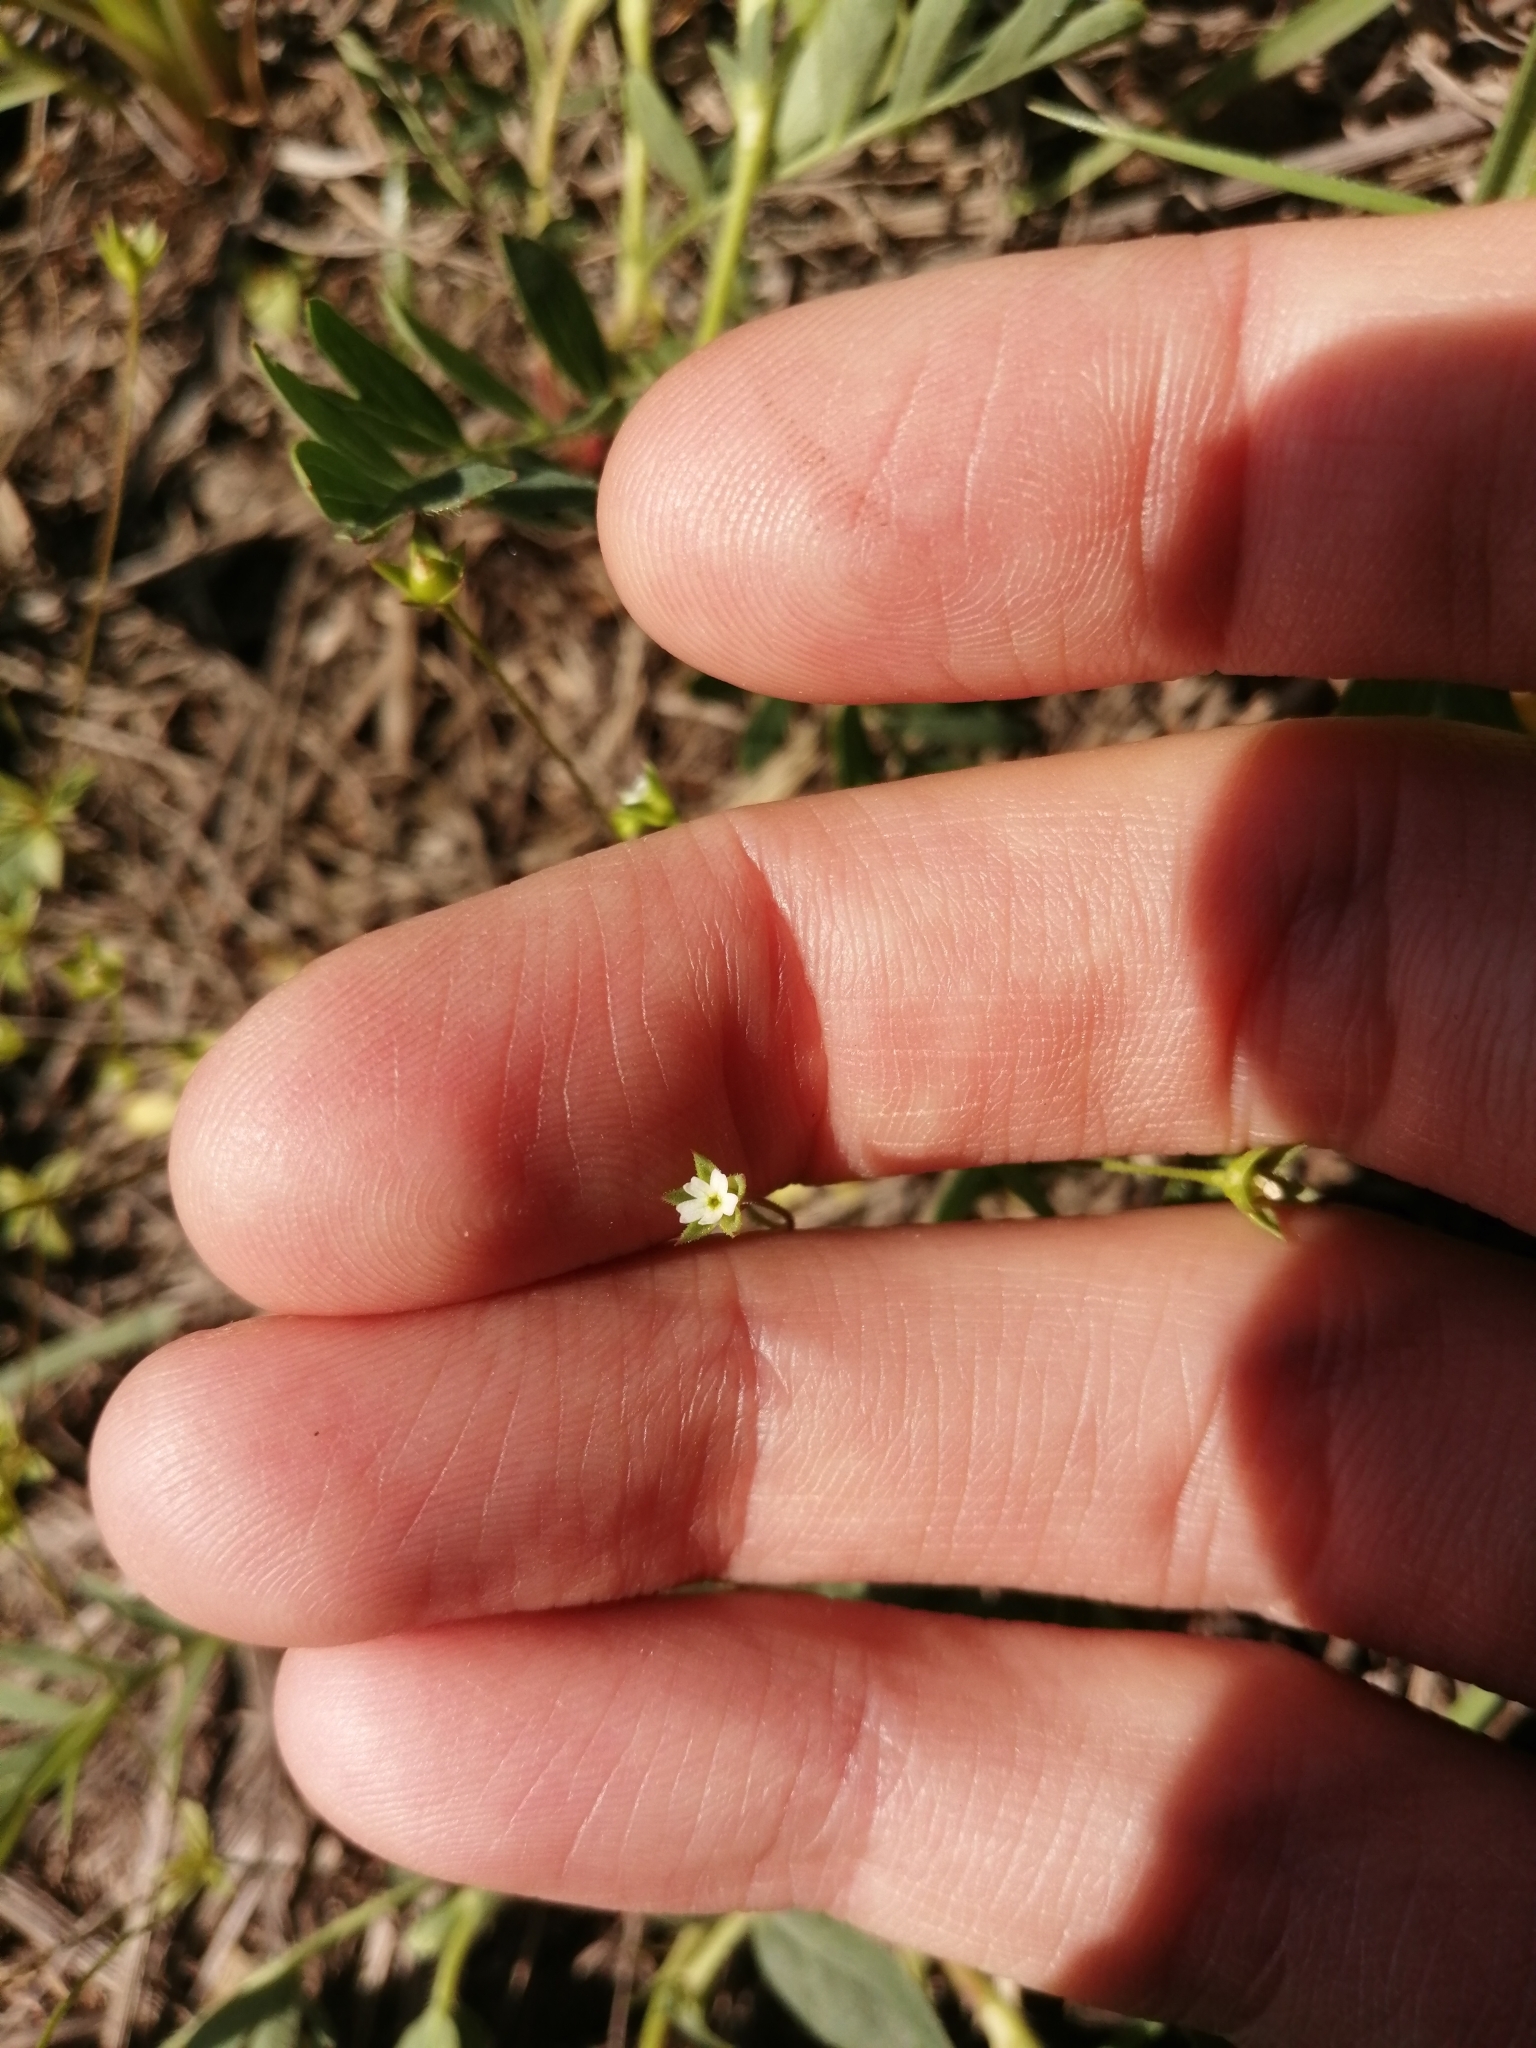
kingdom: Plantae
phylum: Tracheophyta
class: Magnoliopsida
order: Ericales
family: Primulaceae
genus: Androsace
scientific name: Androsace elongata
